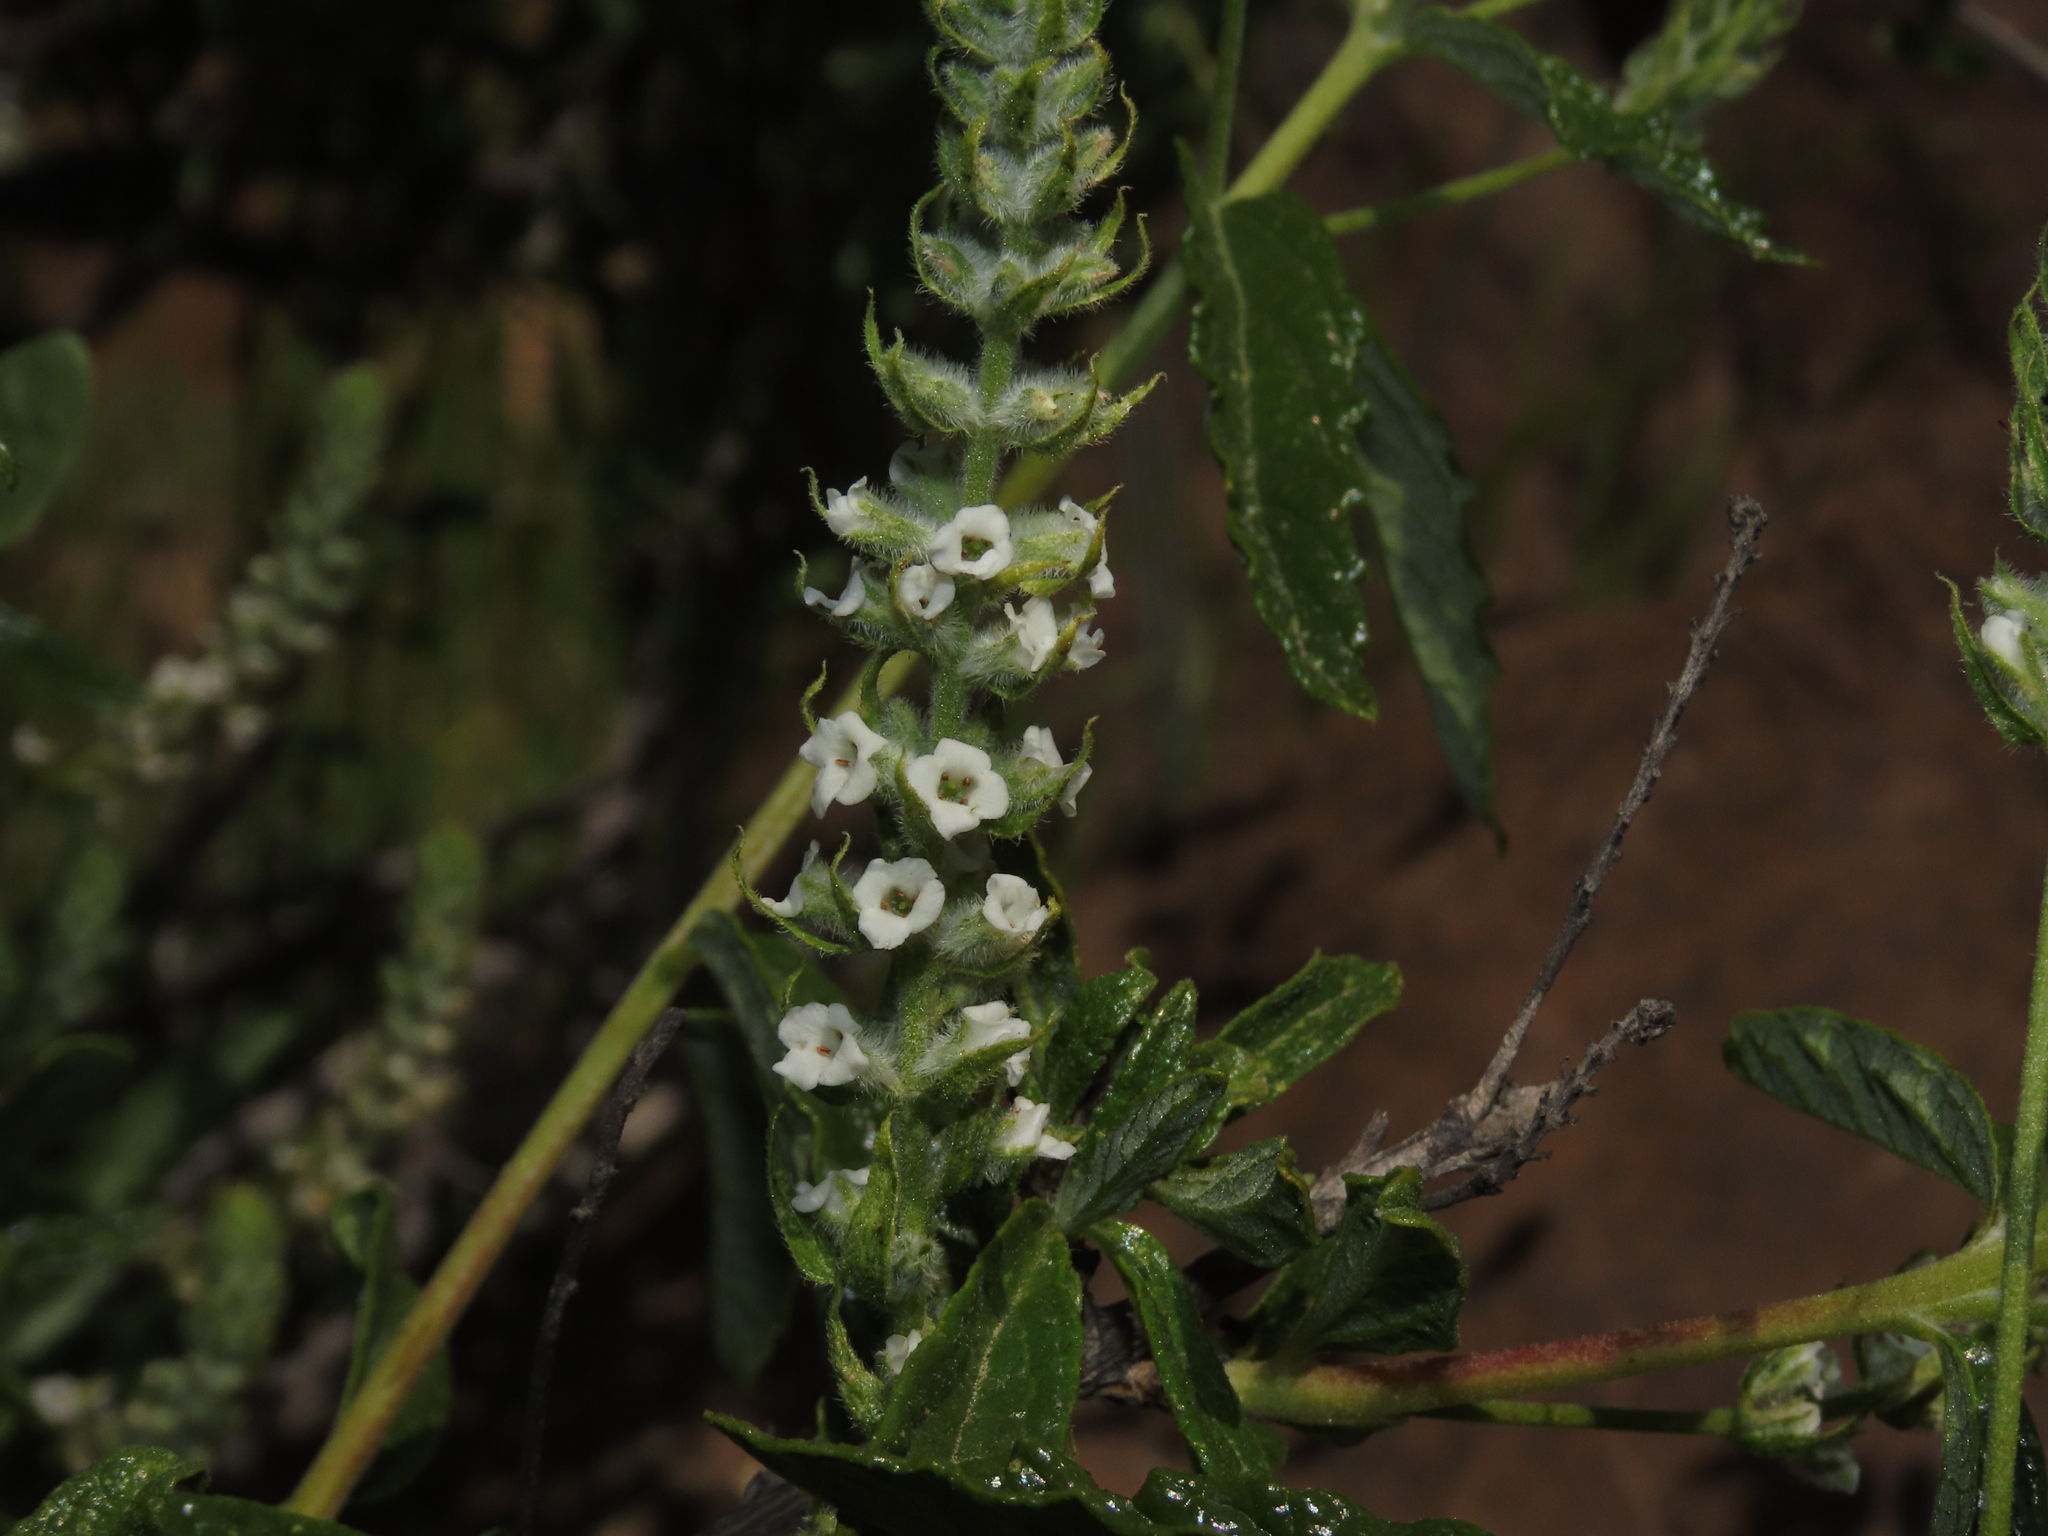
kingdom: Plantae
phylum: Tracheophyta
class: Magnoliopsida
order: Lamiales
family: Verbenaceae
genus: Aloysia
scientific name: Aloysia salviifolia
